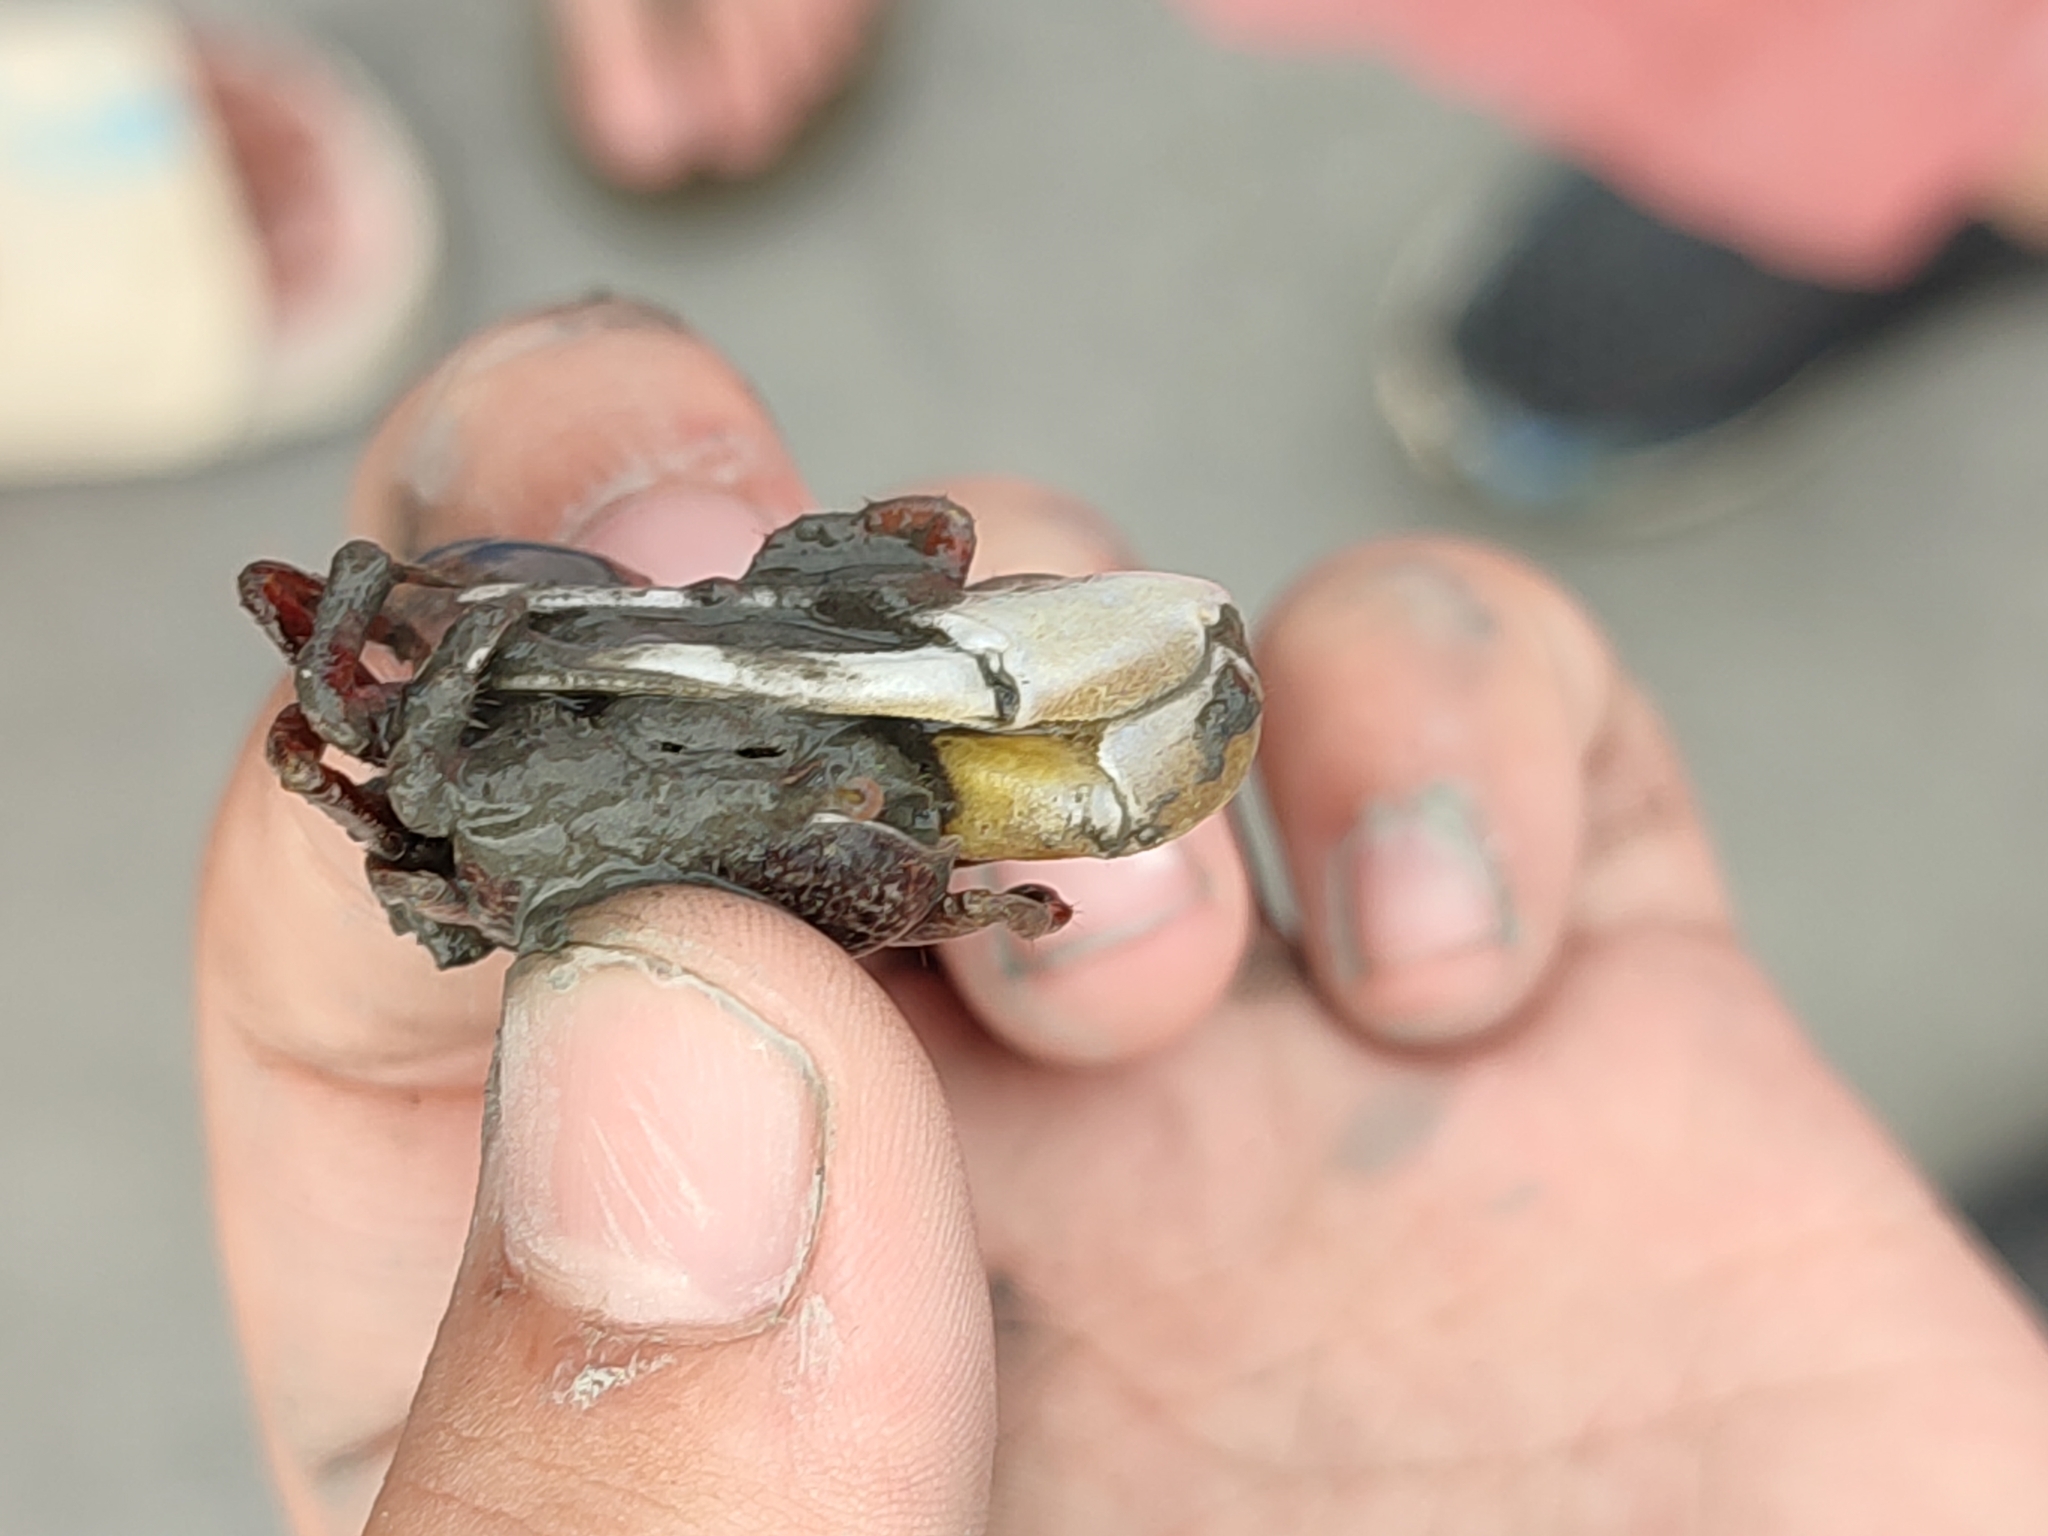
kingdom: Animalia
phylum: Arthropoda
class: Malacostraca
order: Decapoda
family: Ocypodidae
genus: Austruca
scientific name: Austruca lactea
